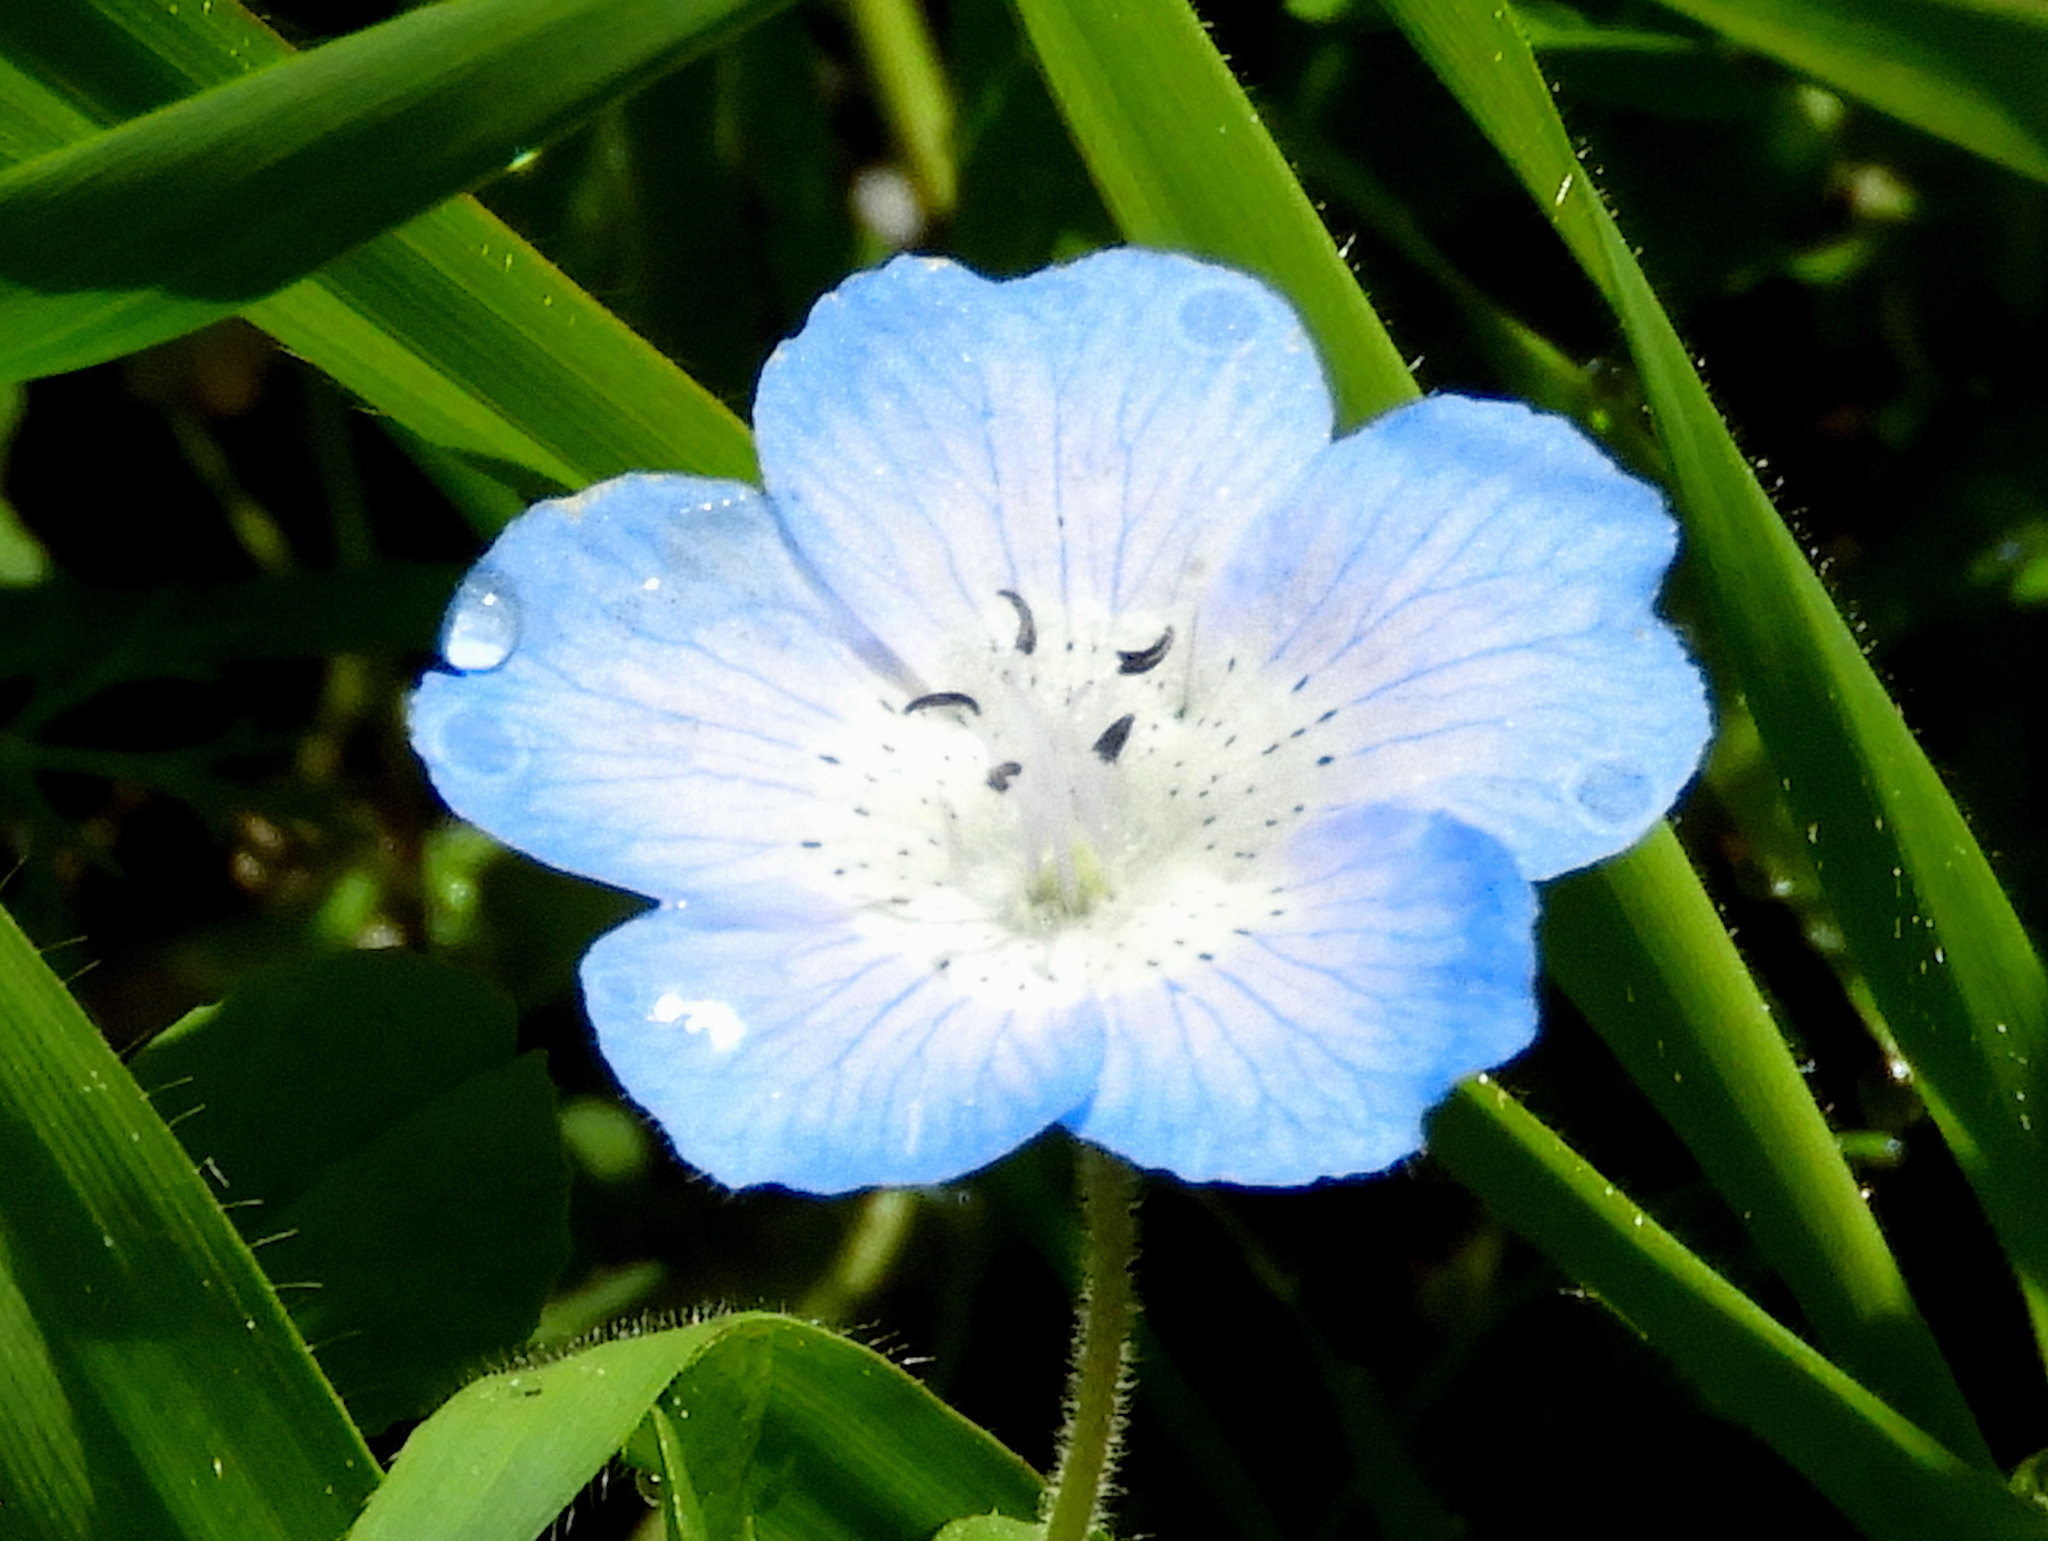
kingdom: Plantae
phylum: Tracheophyta
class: Magnoliopsida
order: Boraginales
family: Hydrophyllaceae
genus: Nemophila
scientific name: Nemophila menziesii
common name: Baby's-blue-eyes
